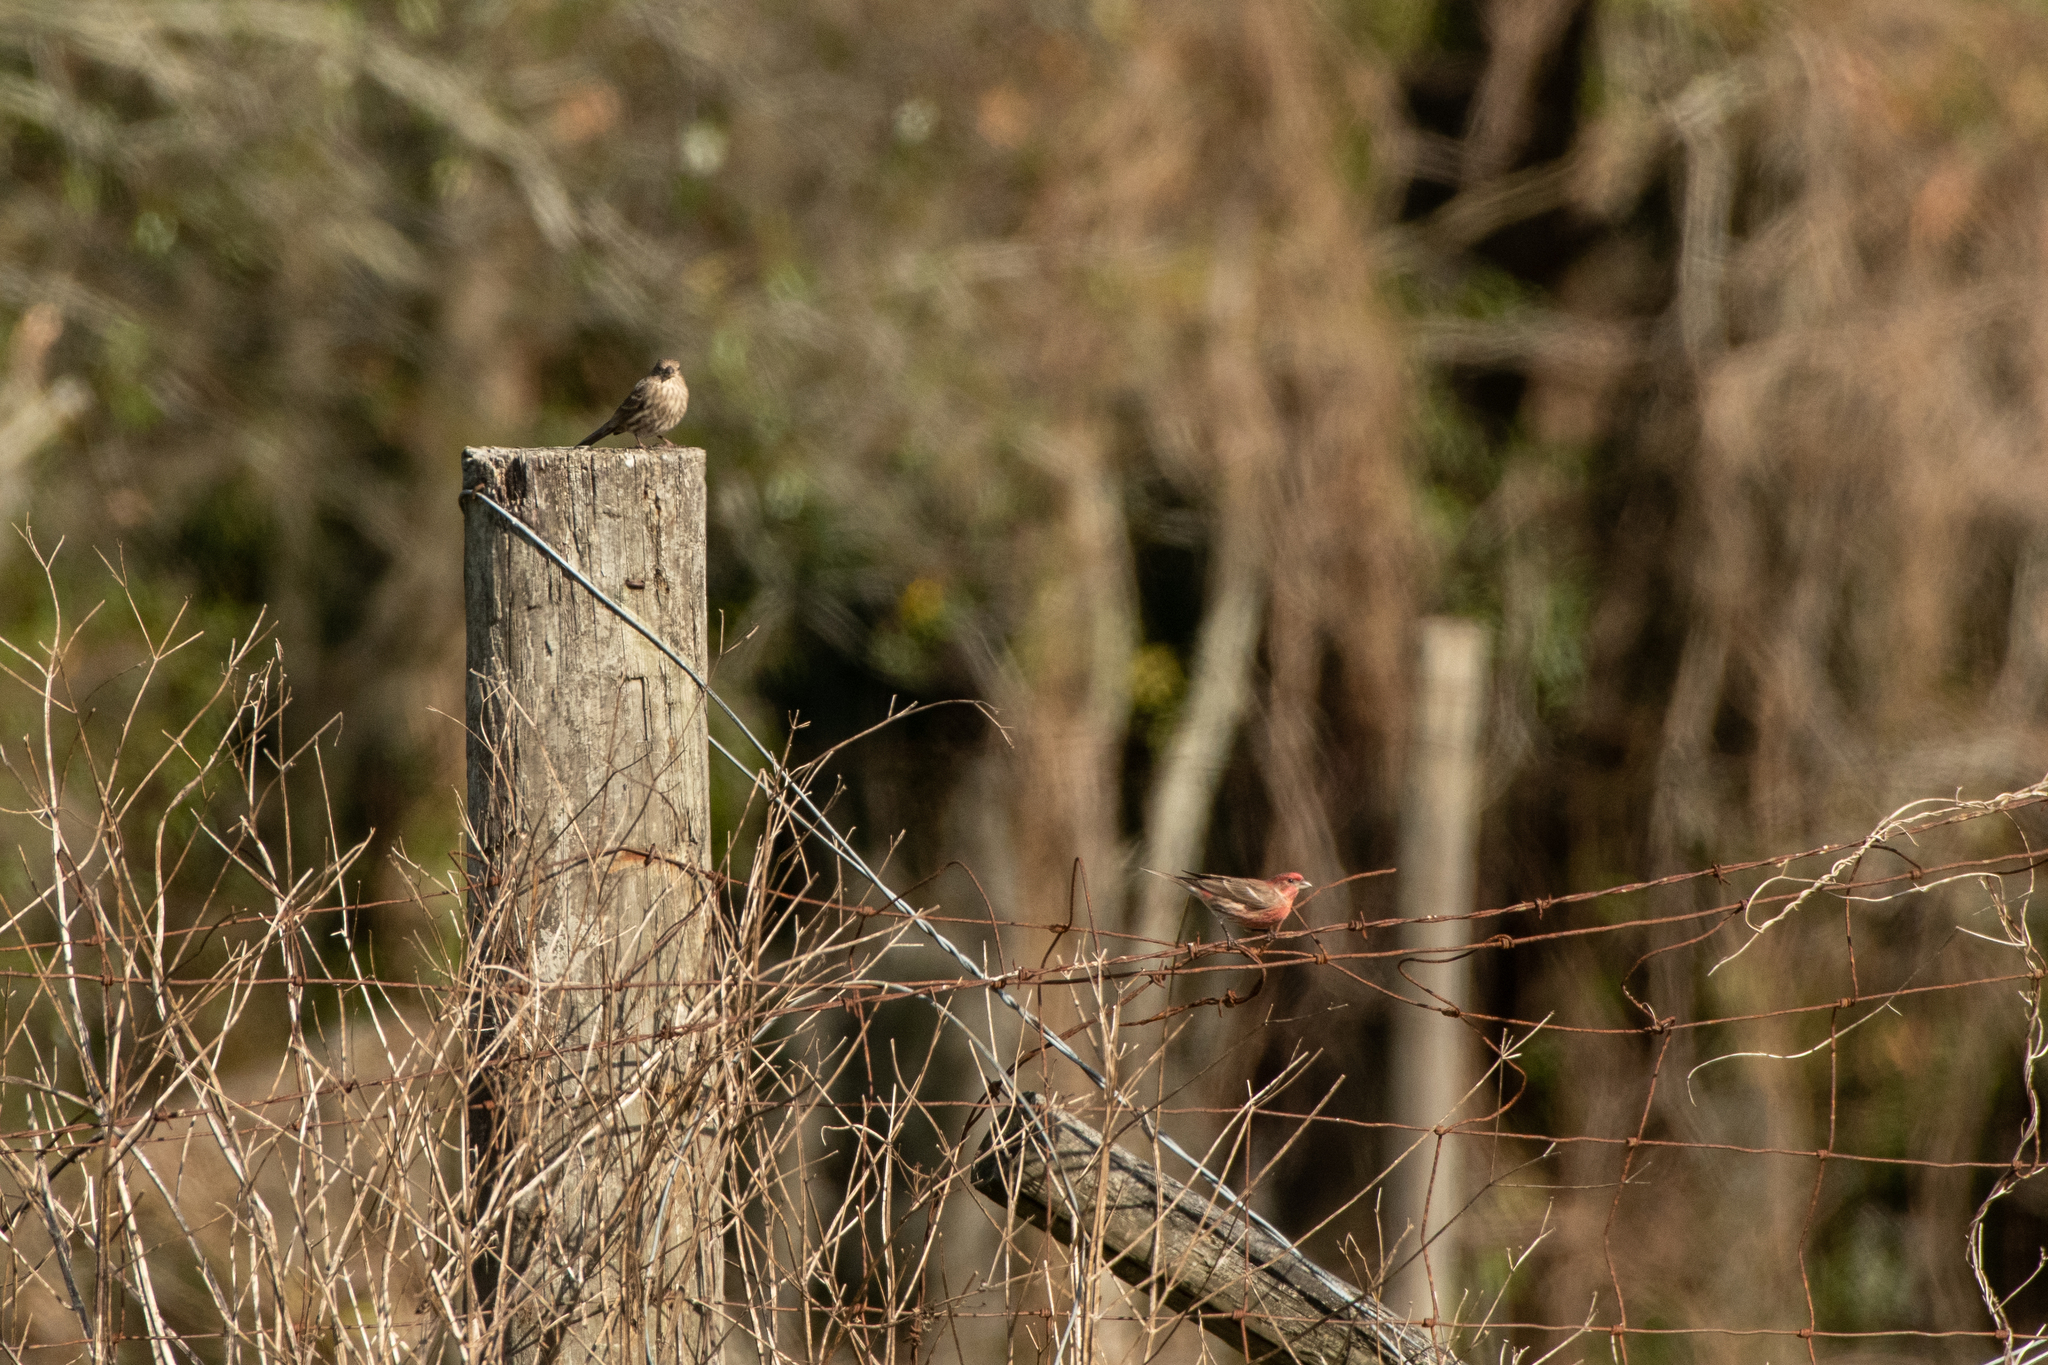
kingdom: Animalia
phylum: Chordata
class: Aves
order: Passeriformes
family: Fringillidae
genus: Haemorhous
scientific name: Haemorhous mexicanus
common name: House finch
